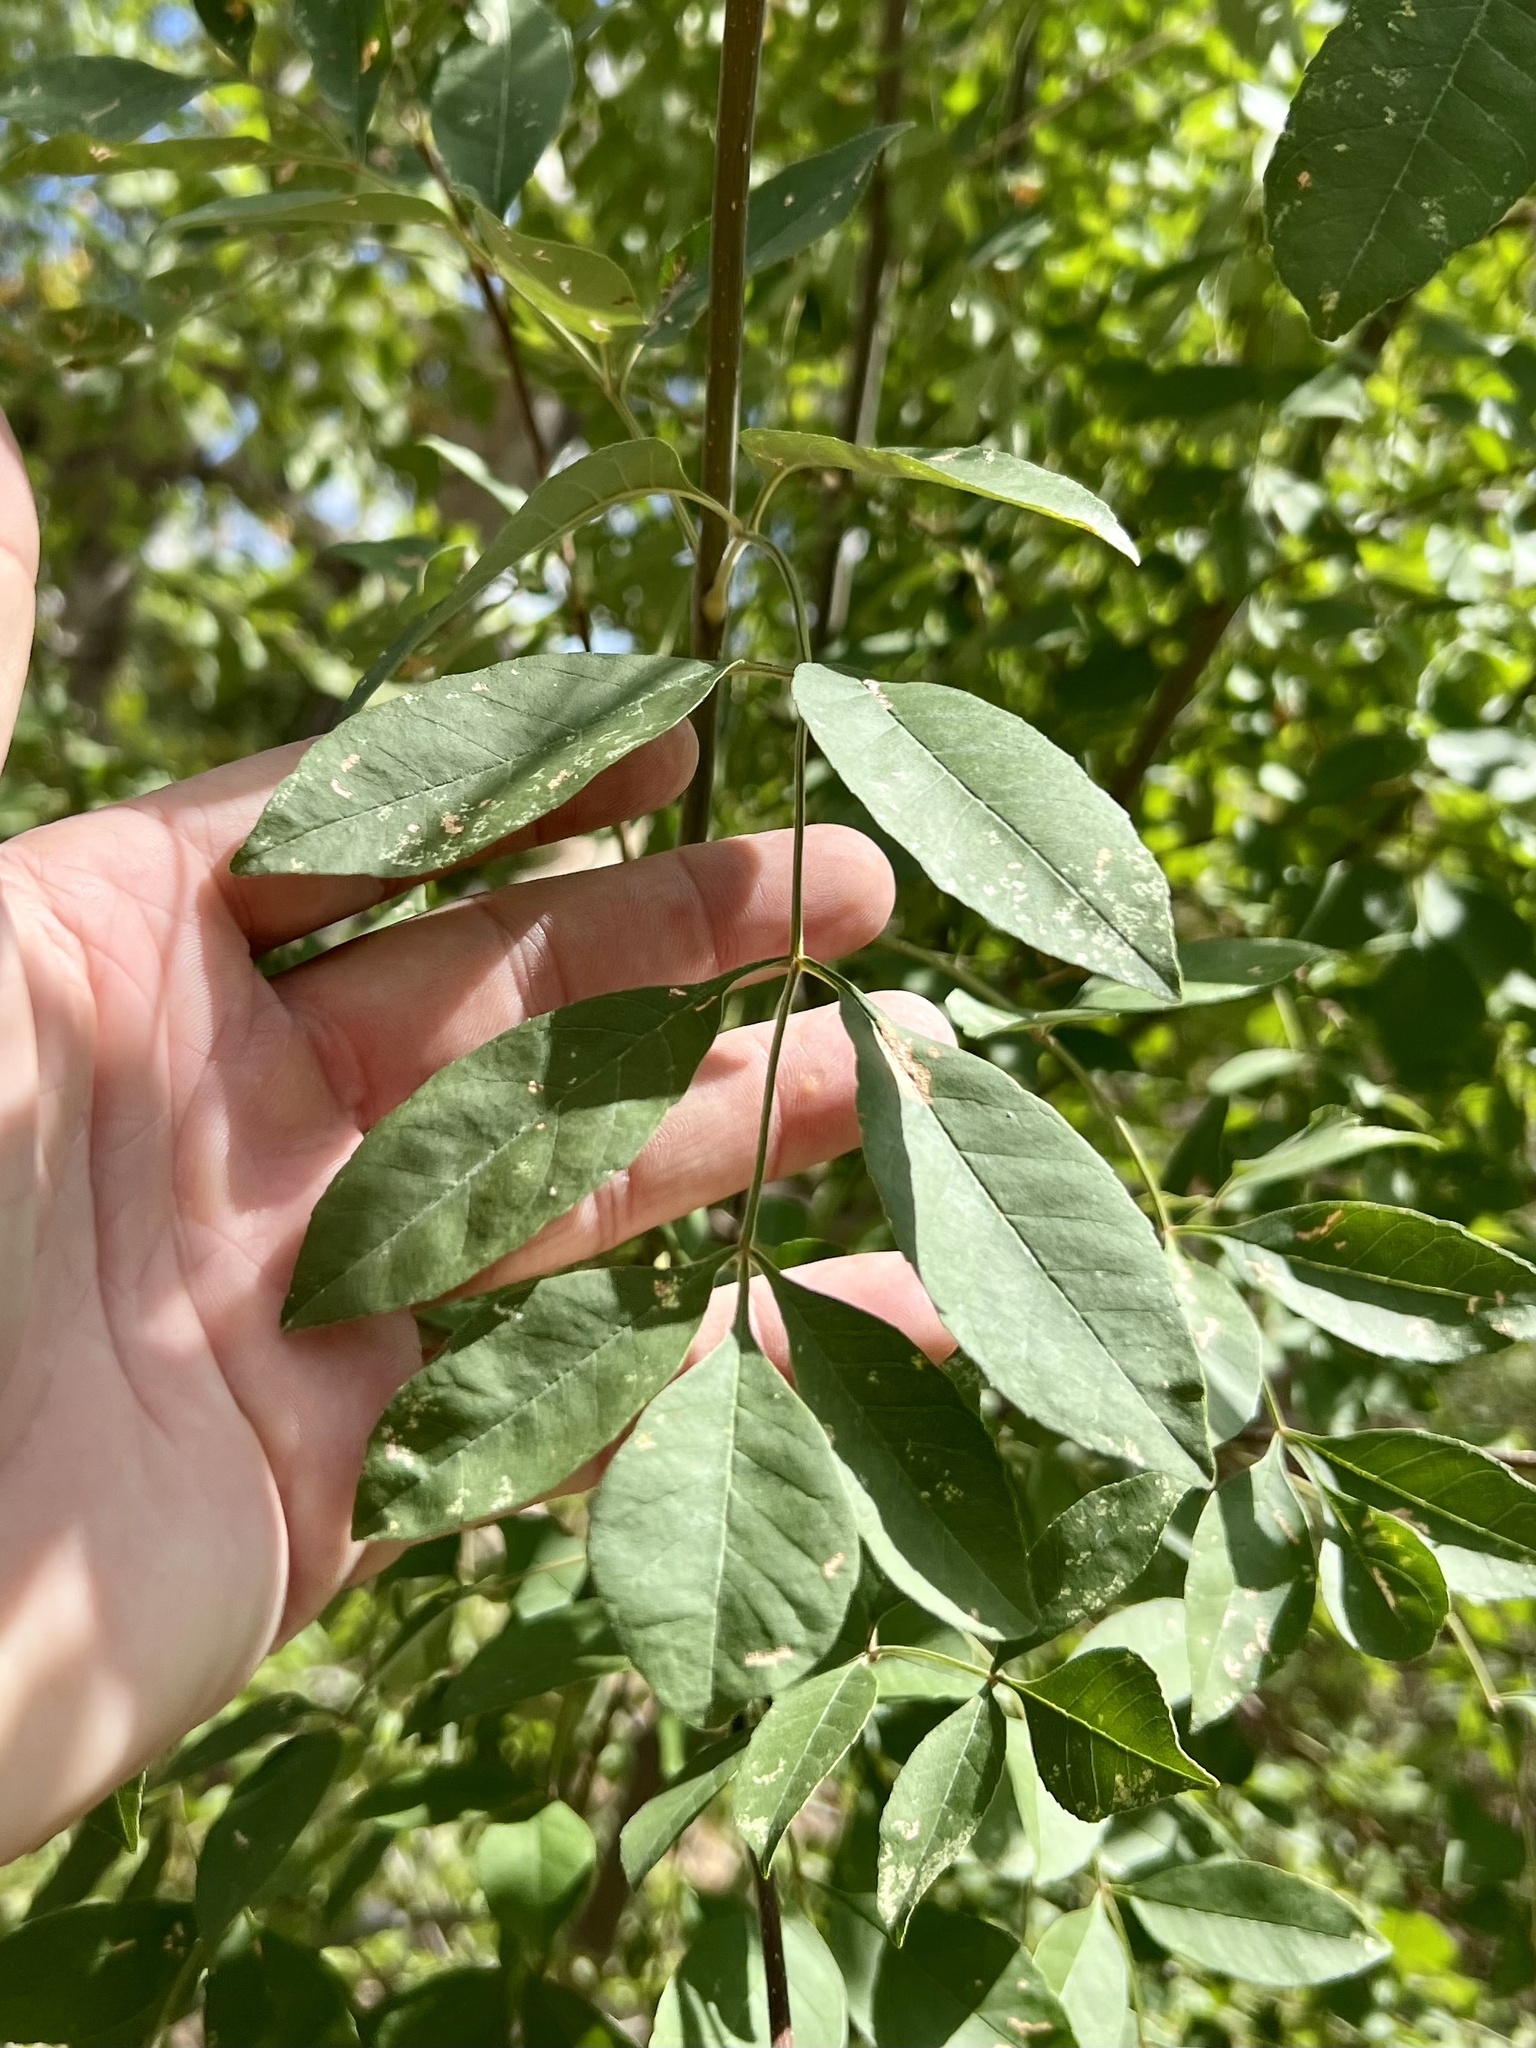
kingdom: Plantae
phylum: Tracheophyta
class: Magnoliopsida
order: Lamiales
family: Oleaceae
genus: Fraxinus
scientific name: Fraxinus velutina
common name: Arizon ash
